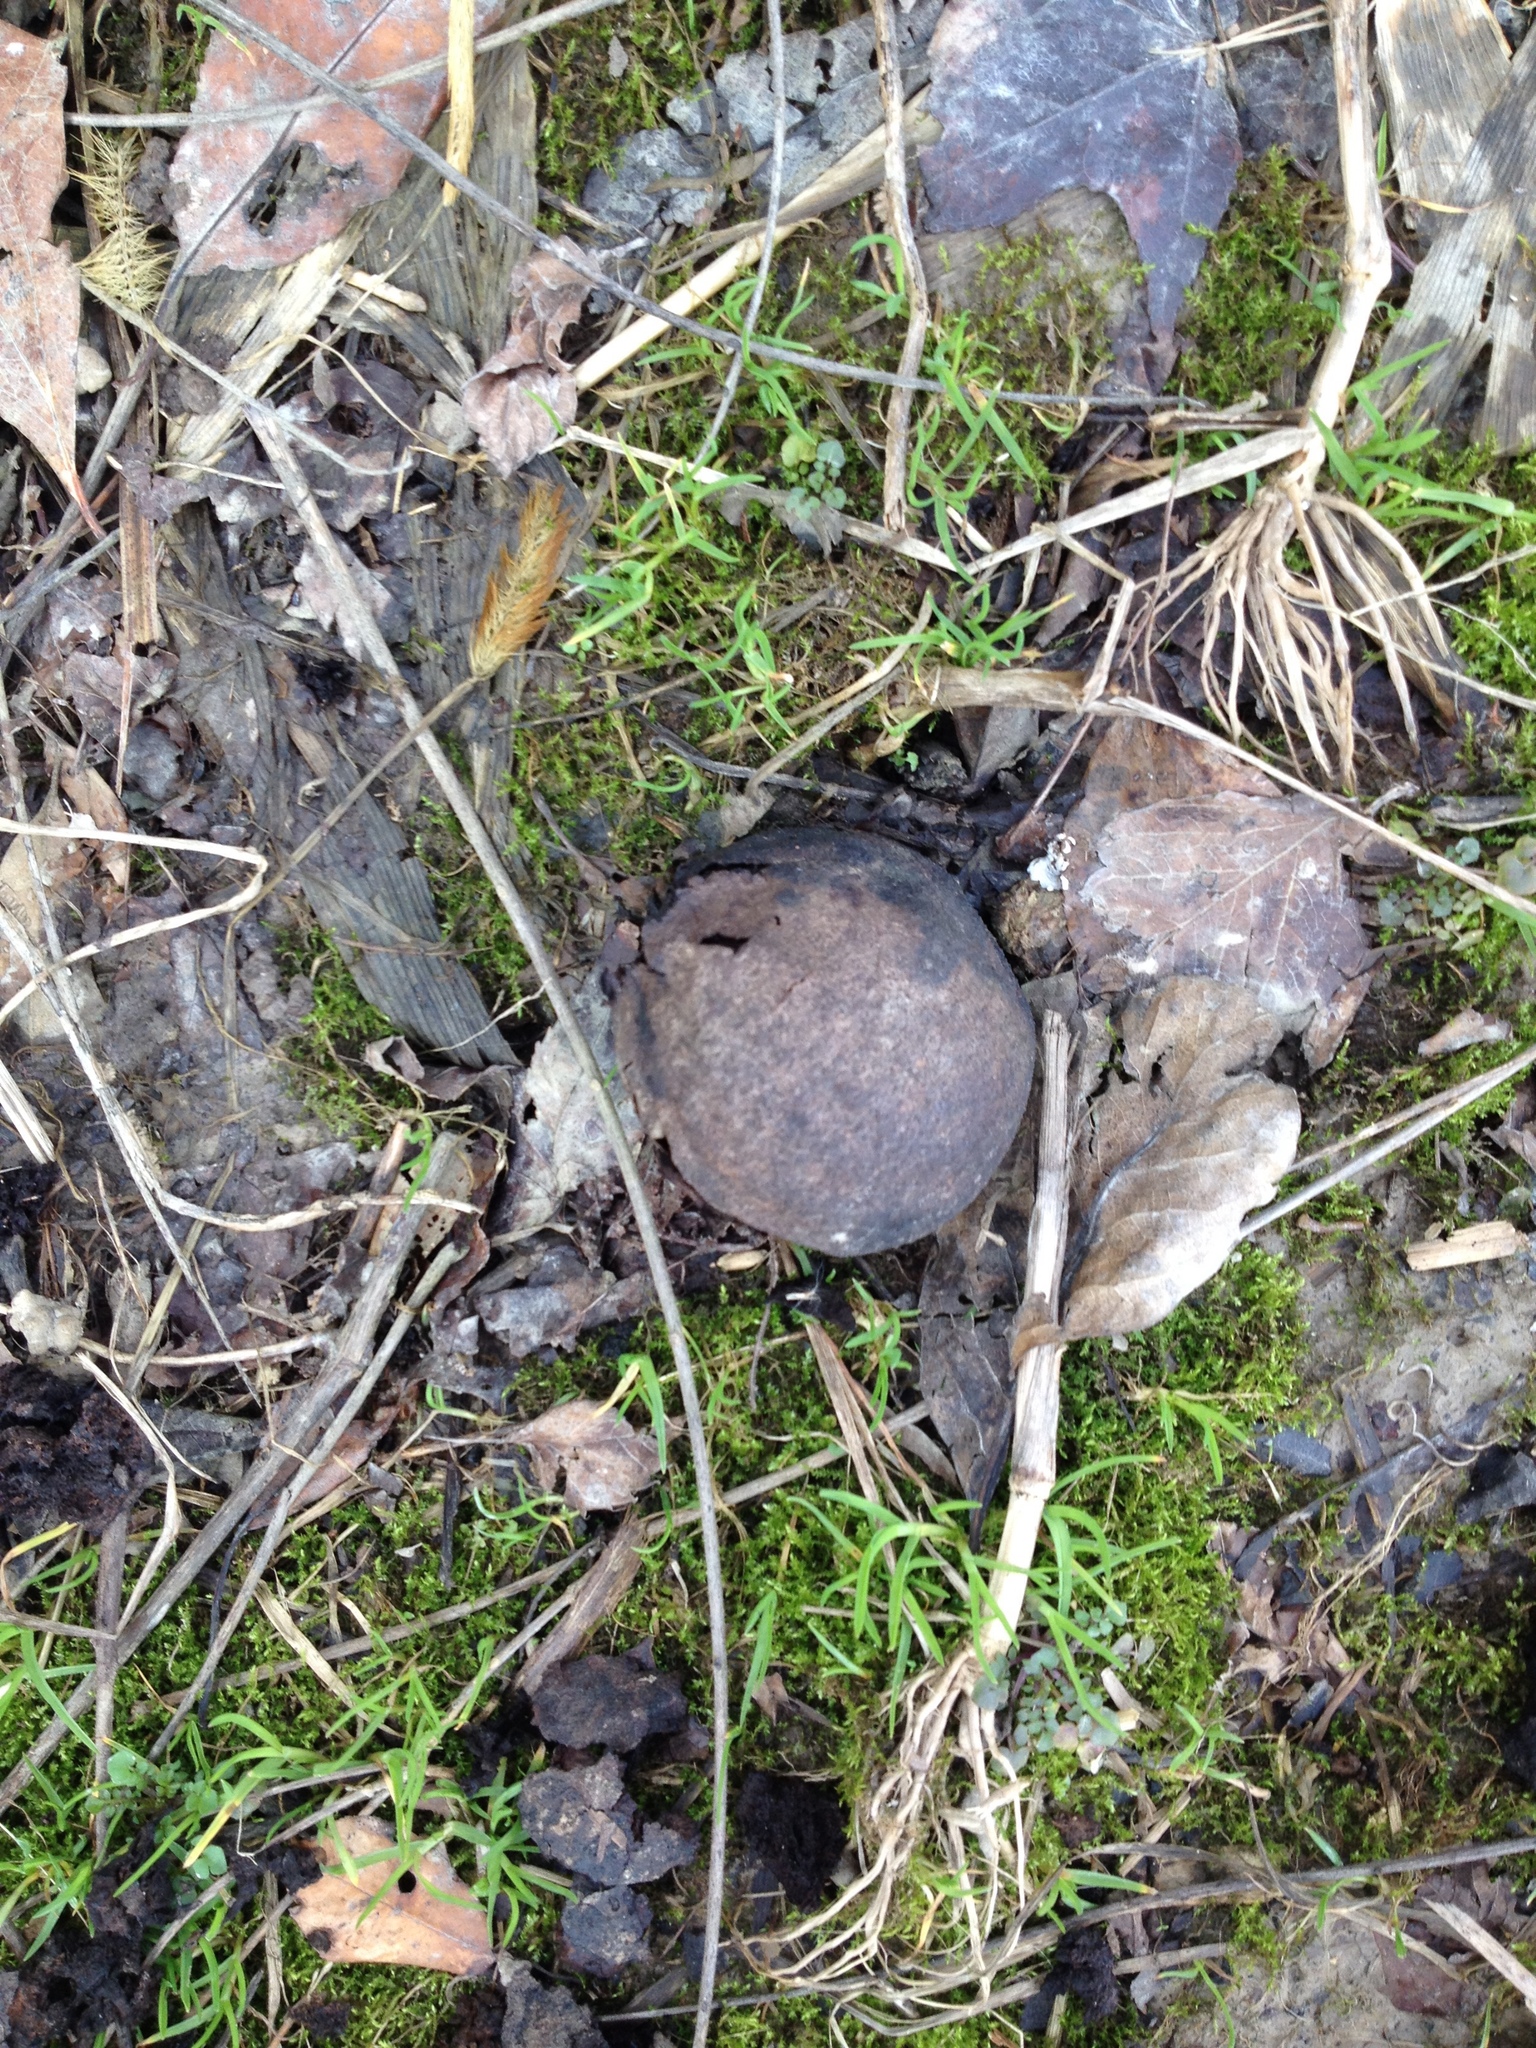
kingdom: Plantae
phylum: Tracheophyta
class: Magnoliopsida
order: Fagales
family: Juglandaceae
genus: Juglans
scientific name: Juglans nigra
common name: Black walnut
